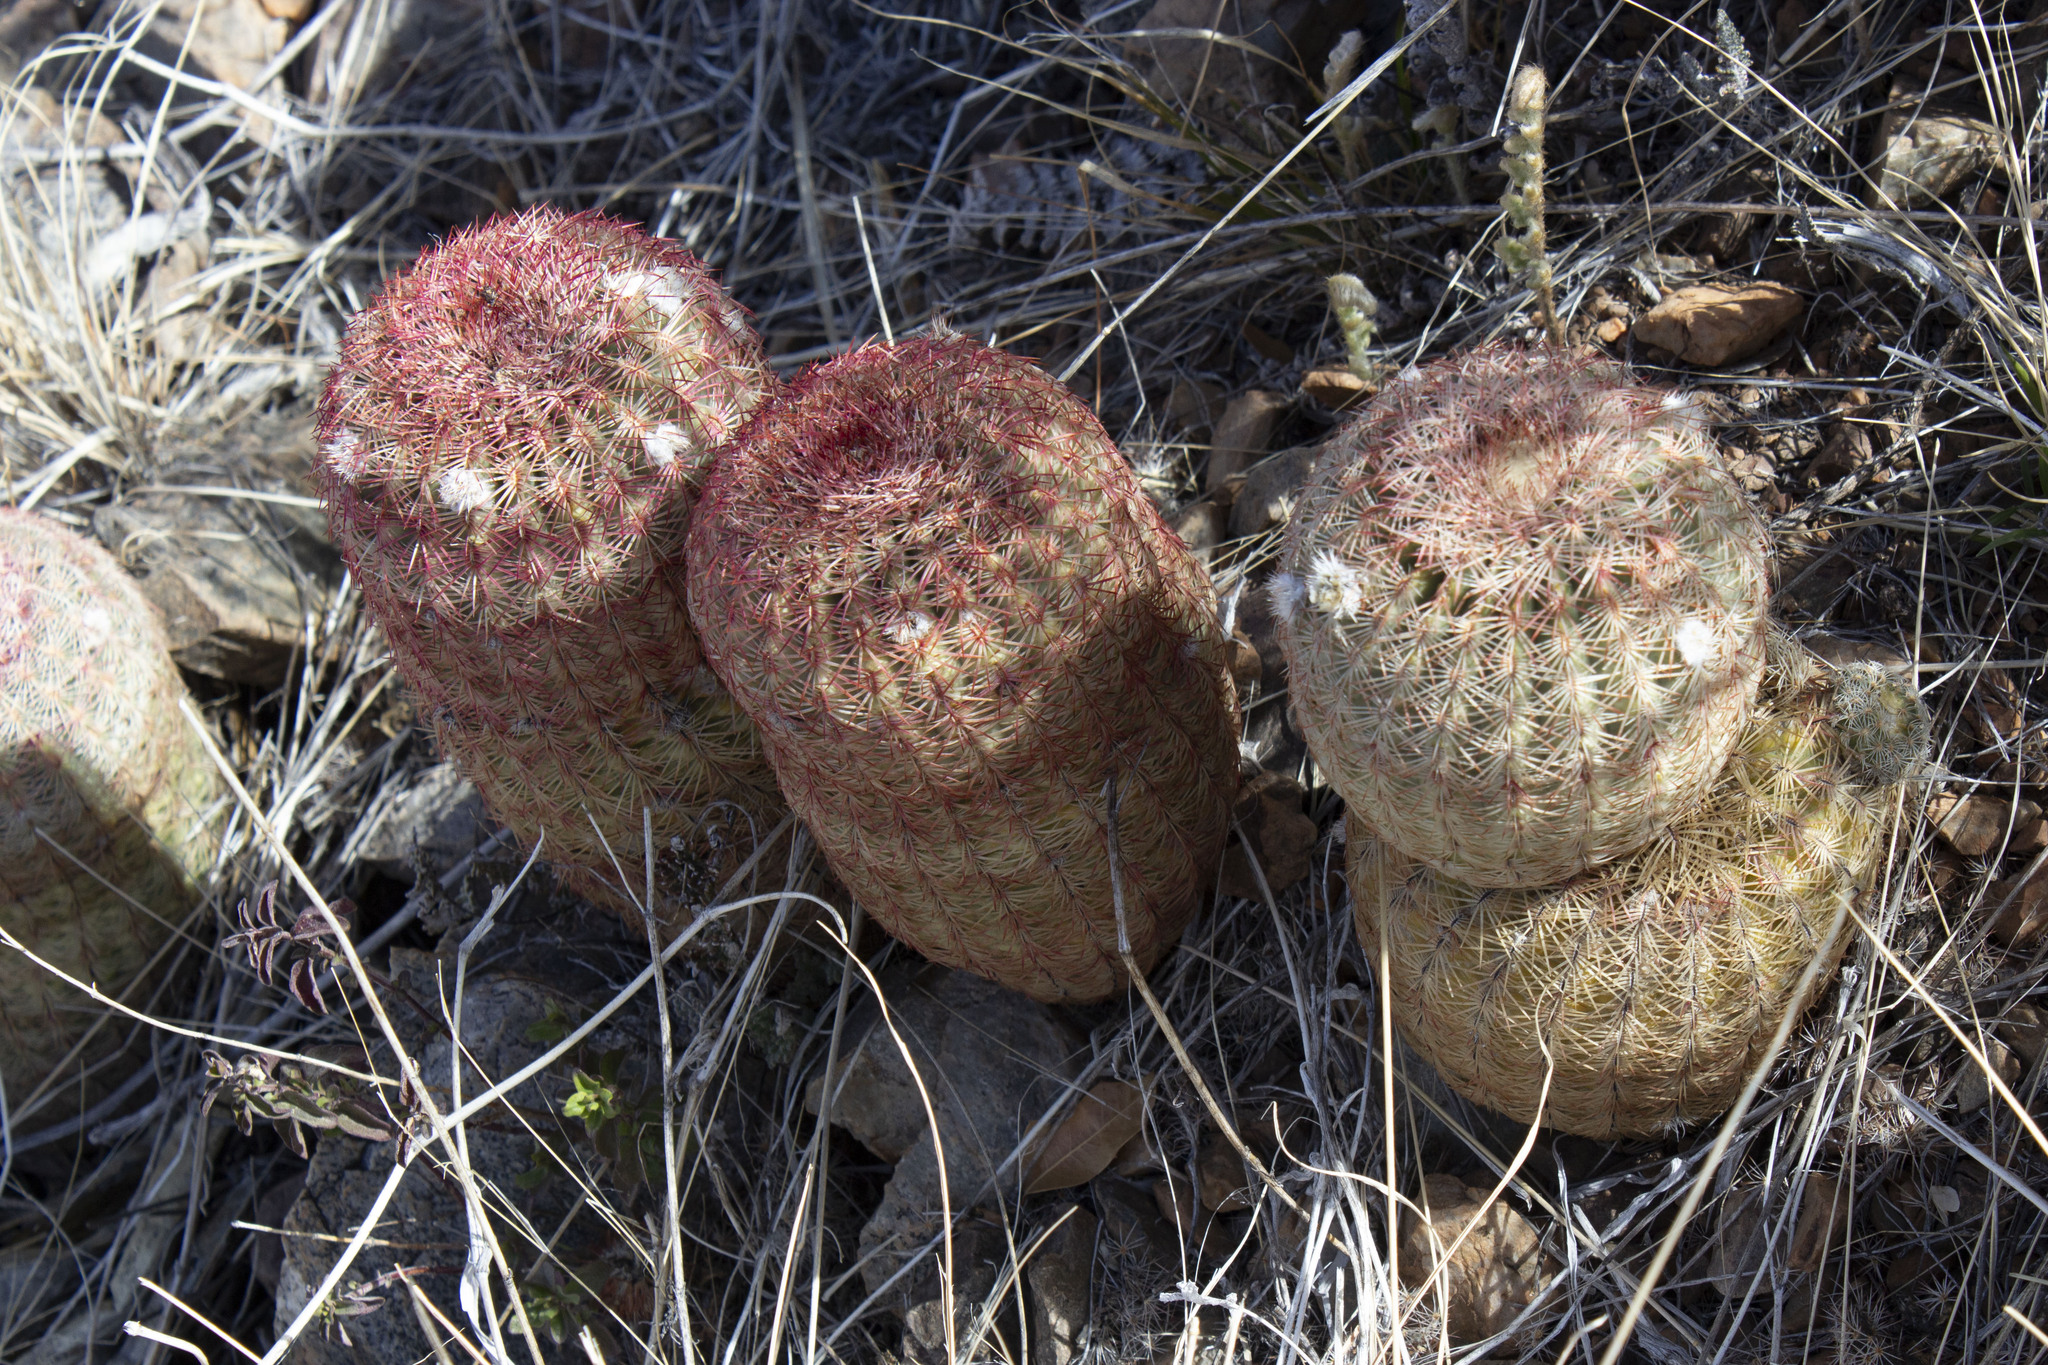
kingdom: Plantae
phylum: Tracheophyta
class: Magnoliopsida
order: Caryophyllales
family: Cactaceae
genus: Echinocereus
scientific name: Echinocereus rigidissimus
